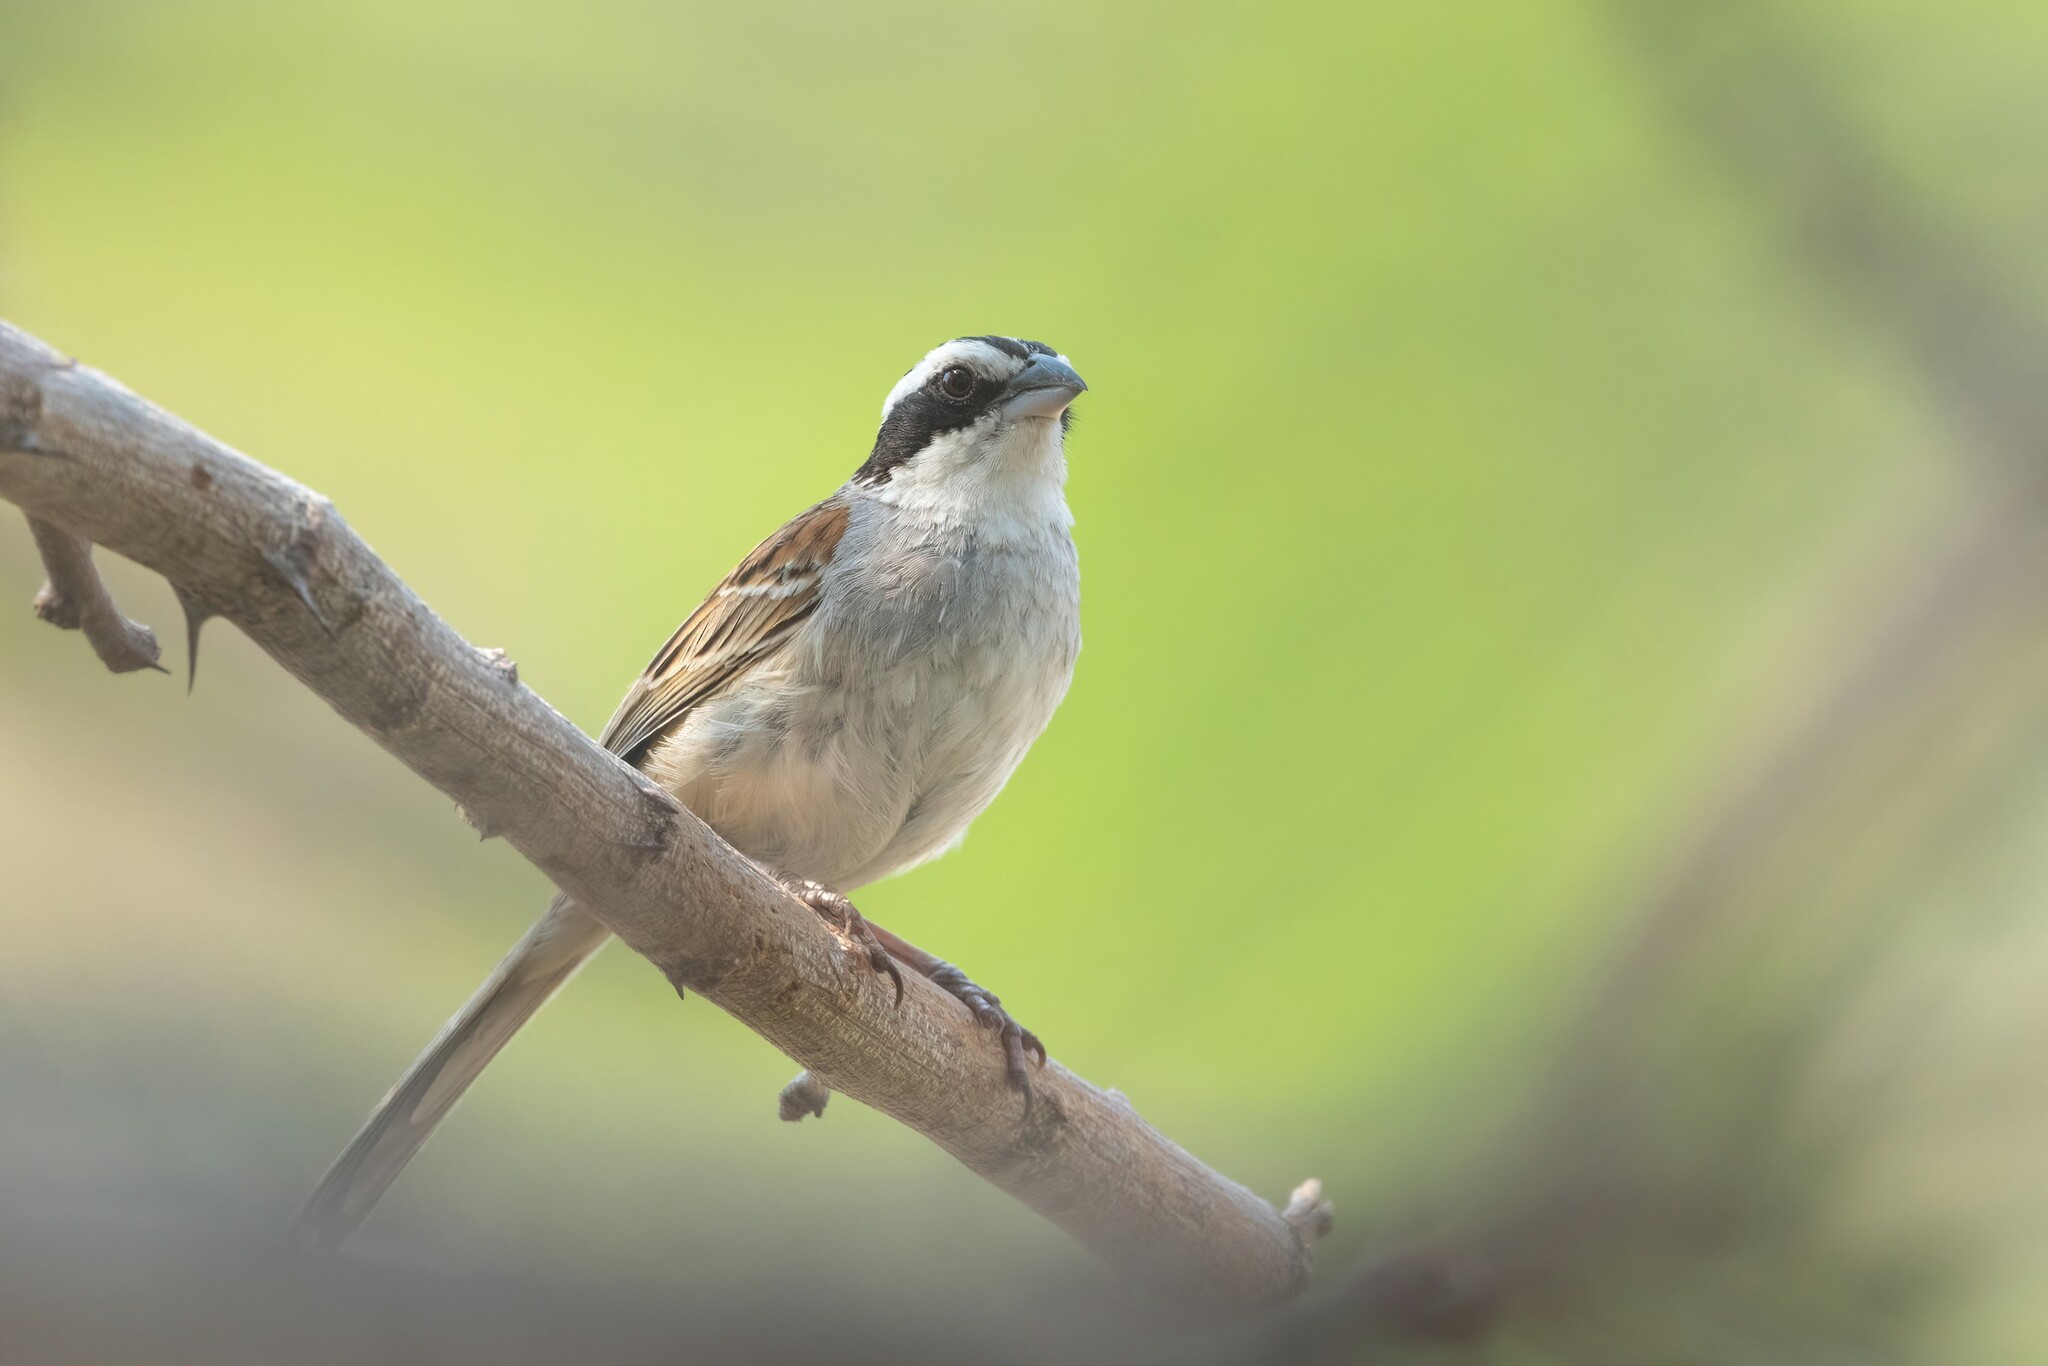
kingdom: Animalia
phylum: Chordata
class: Aves
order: Passeriformes
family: Passerellidae
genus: Peucaea
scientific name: Peucaea ruficauda
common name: Stripe-headed sparrow
